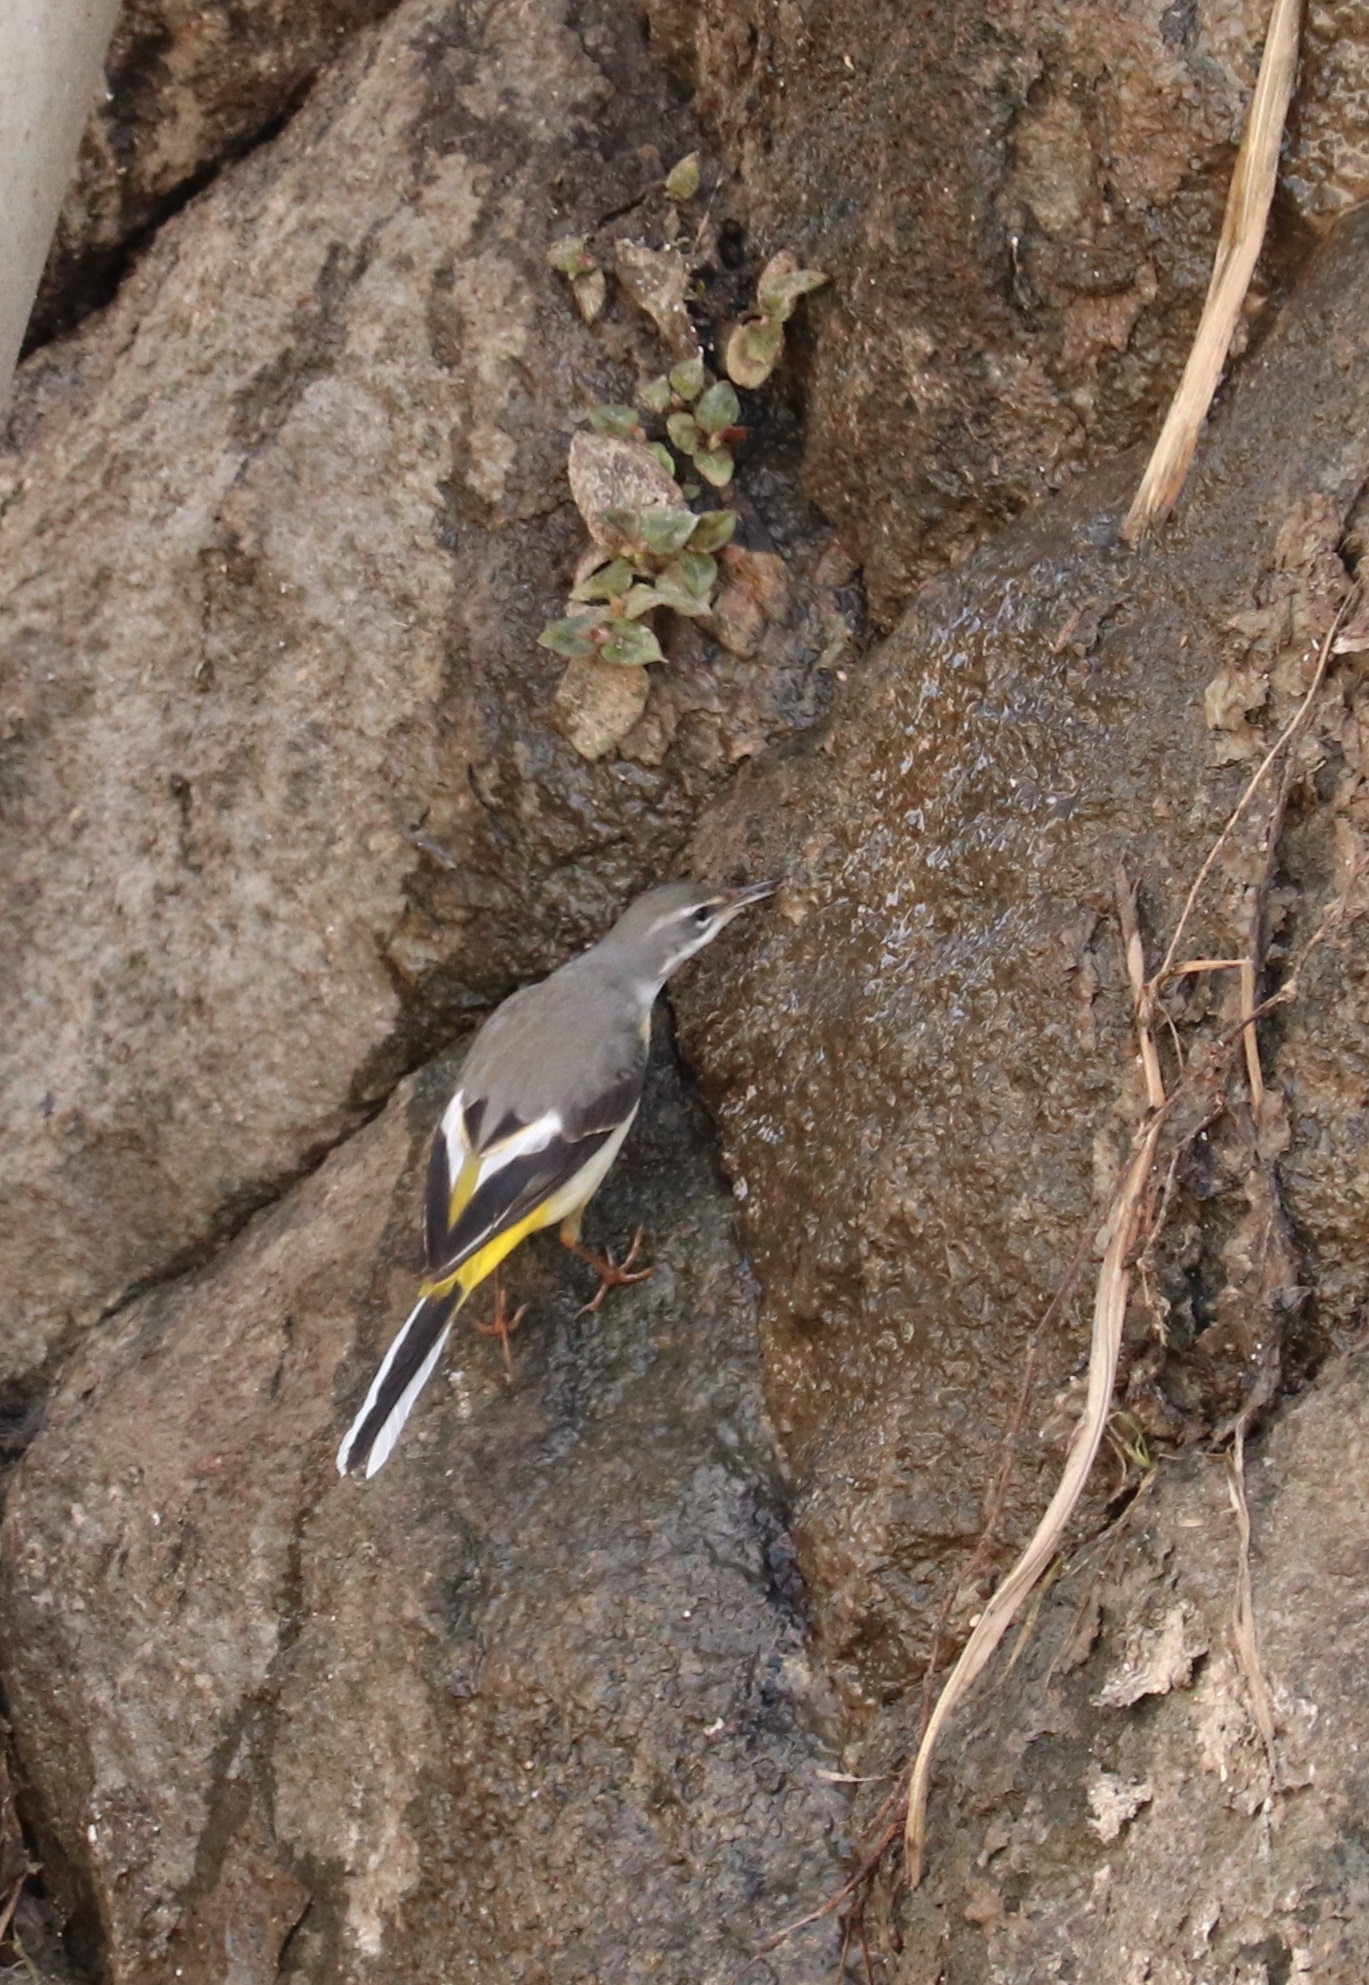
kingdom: Animalia
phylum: Chordata
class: Aves
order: Passeriformes
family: Motacillidae
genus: Motacilla
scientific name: Motacilla cinerea
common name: Grey wagtail
